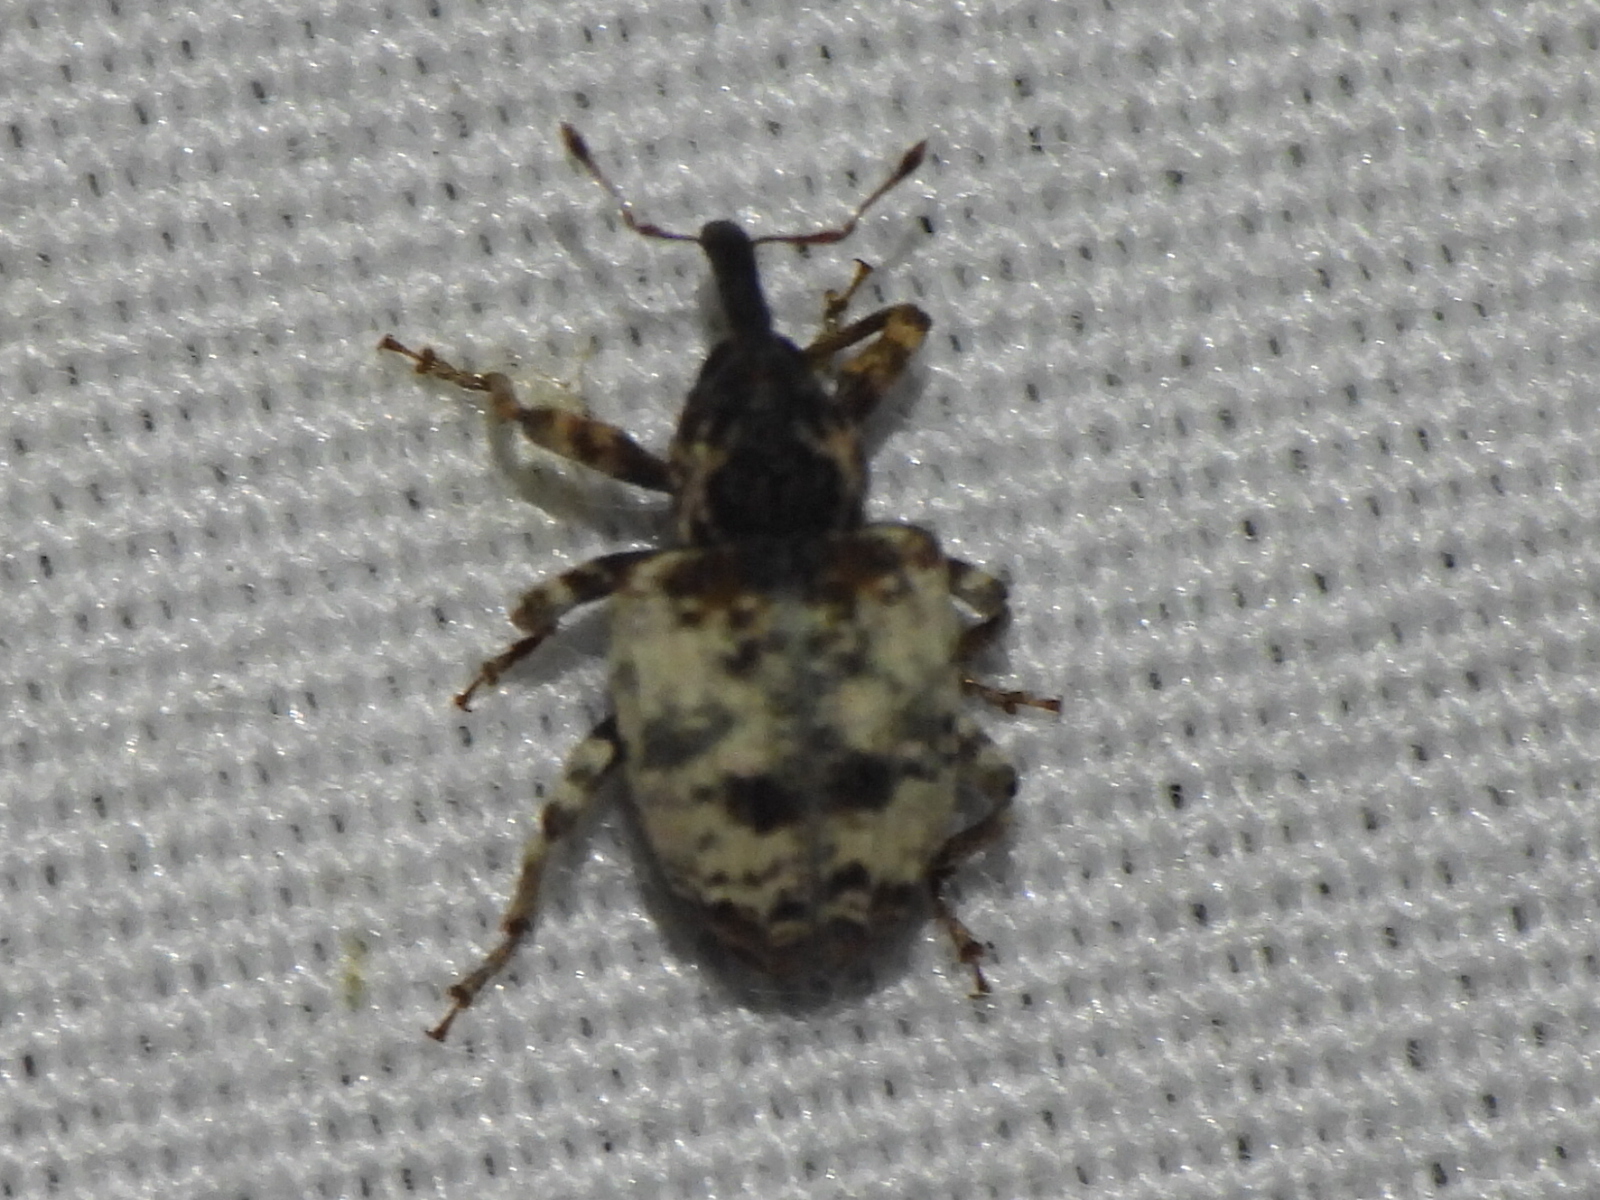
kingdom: Animalia
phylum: Arthropoda
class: Insecta
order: Coleoptera
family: Curculionidae
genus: Conotrachelus
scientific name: Conotrachelus leucophaeatus
